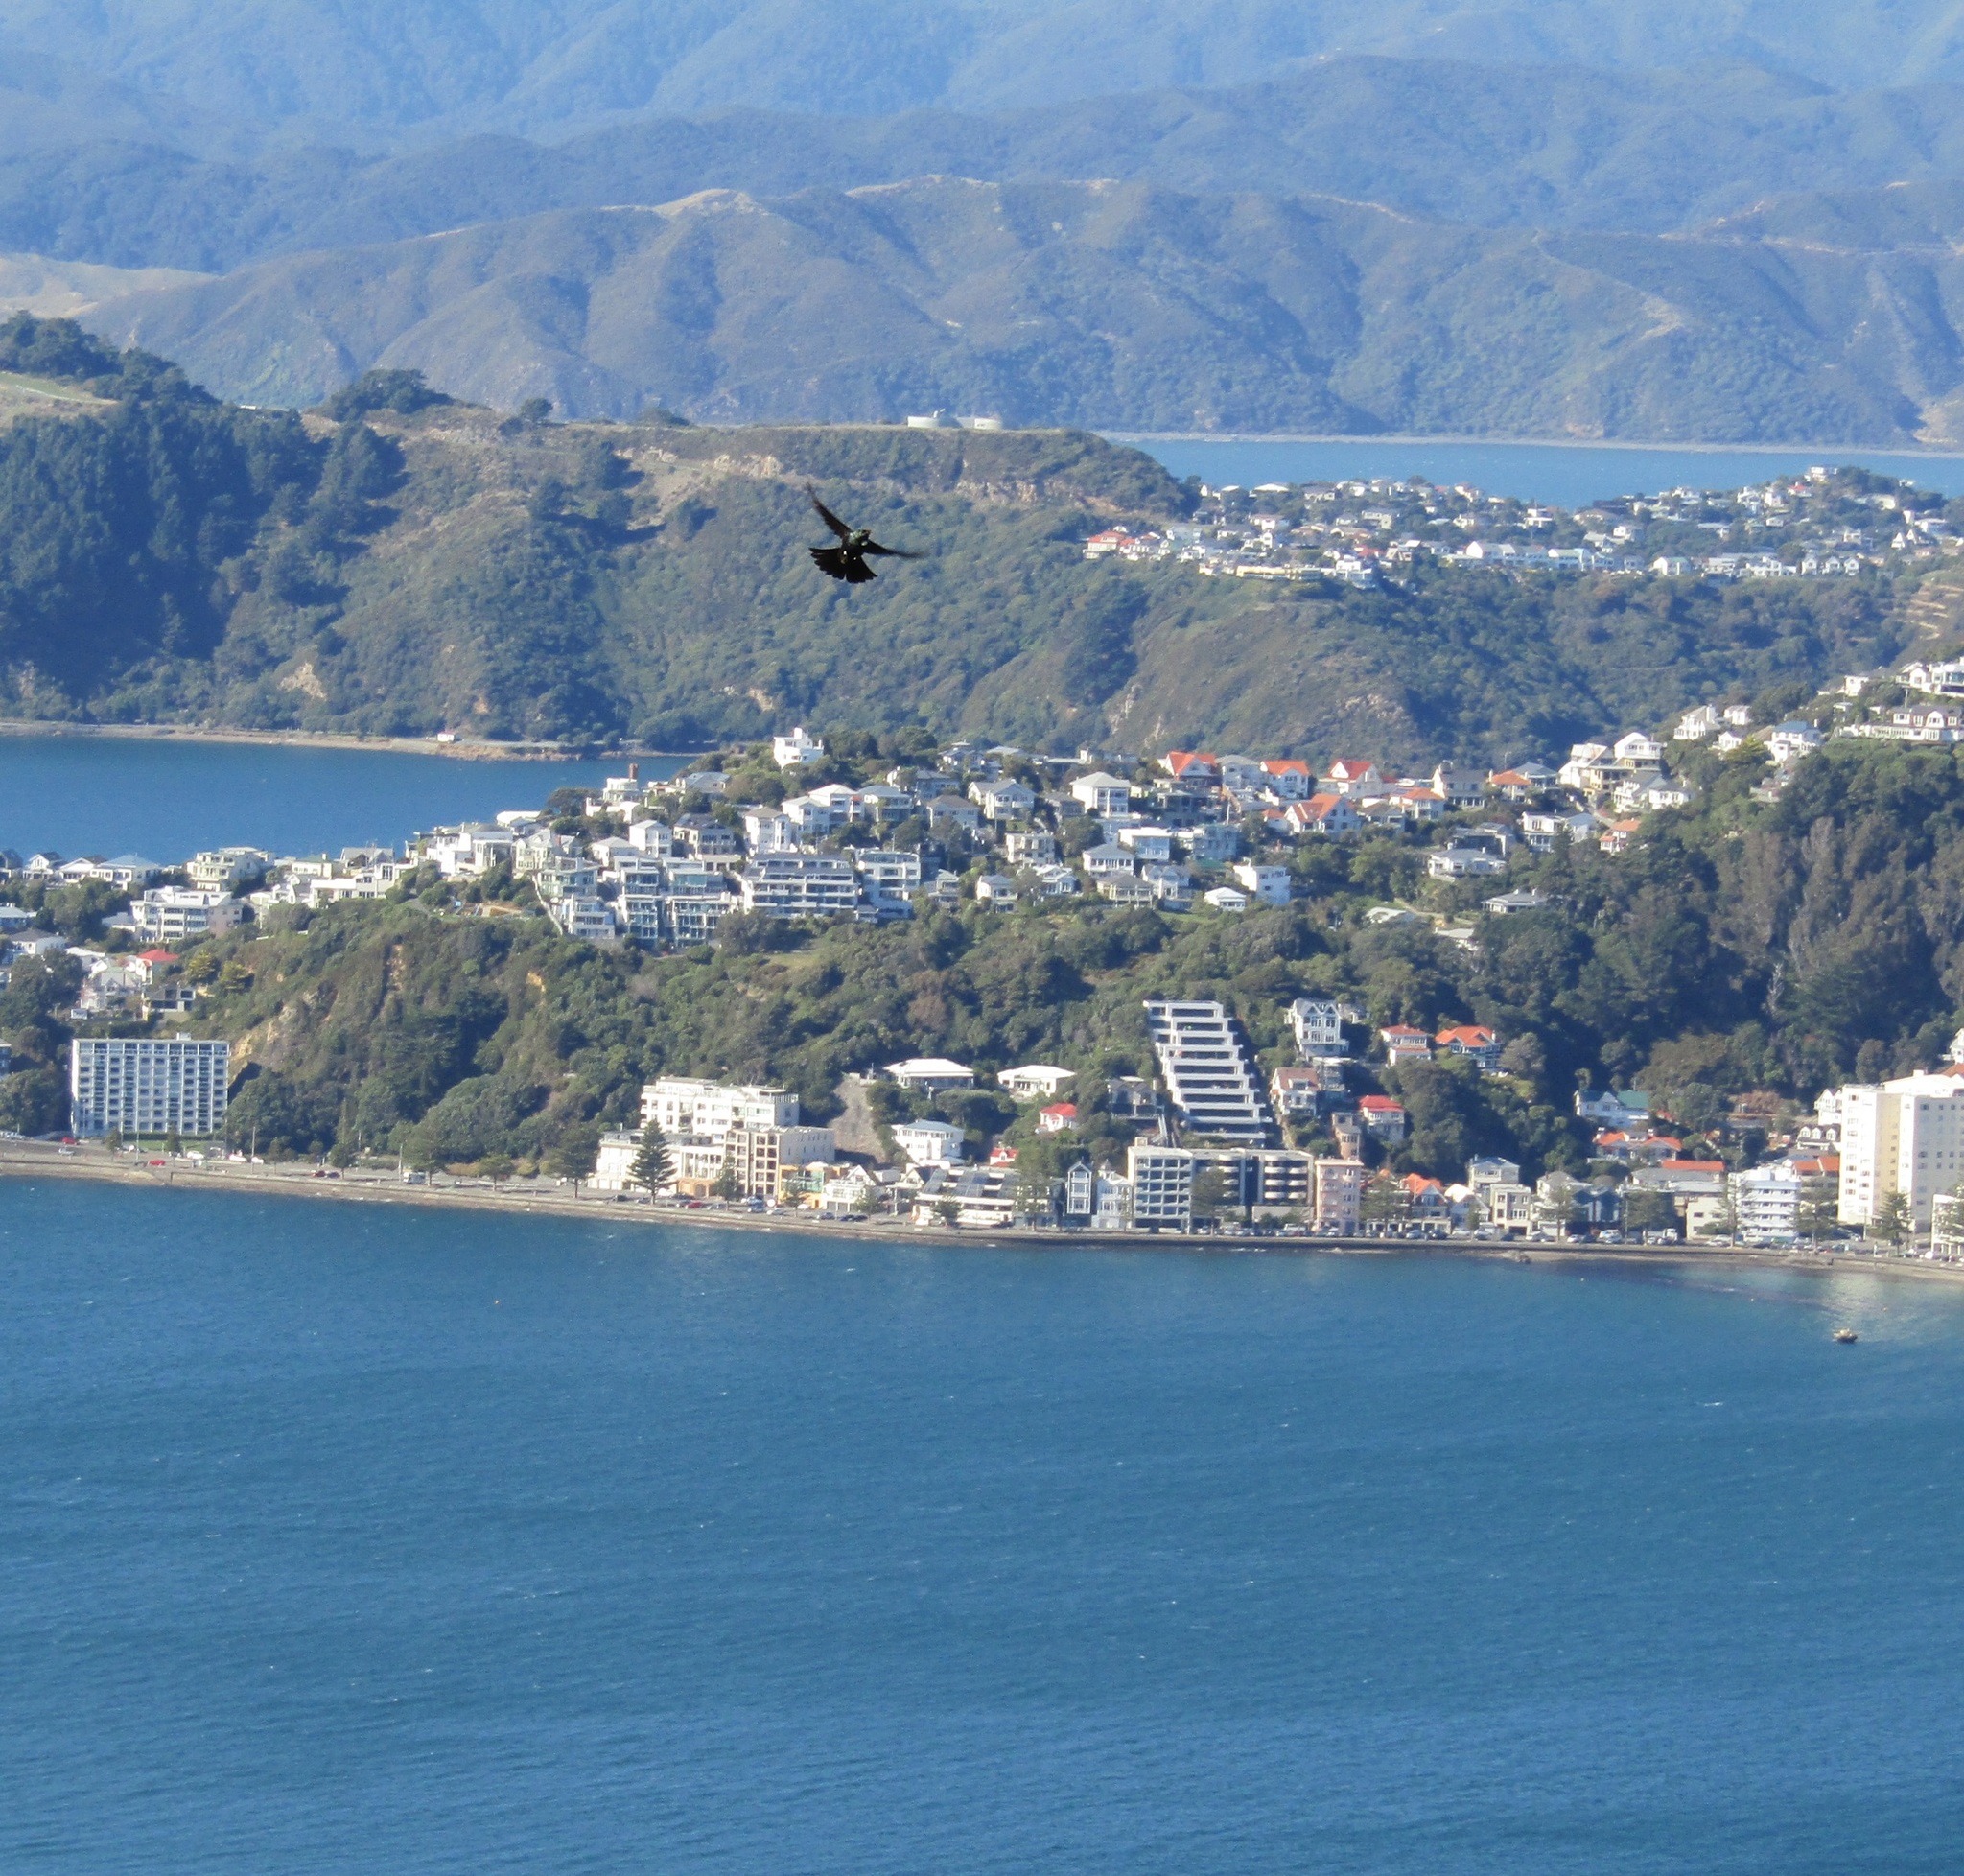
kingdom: Animalia
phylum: Chordata
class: Aves
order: Passeriformes
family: Meliphagidae
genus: Prosthemadera
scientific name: Prosthemadera novaeseelandiae
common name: Tui
